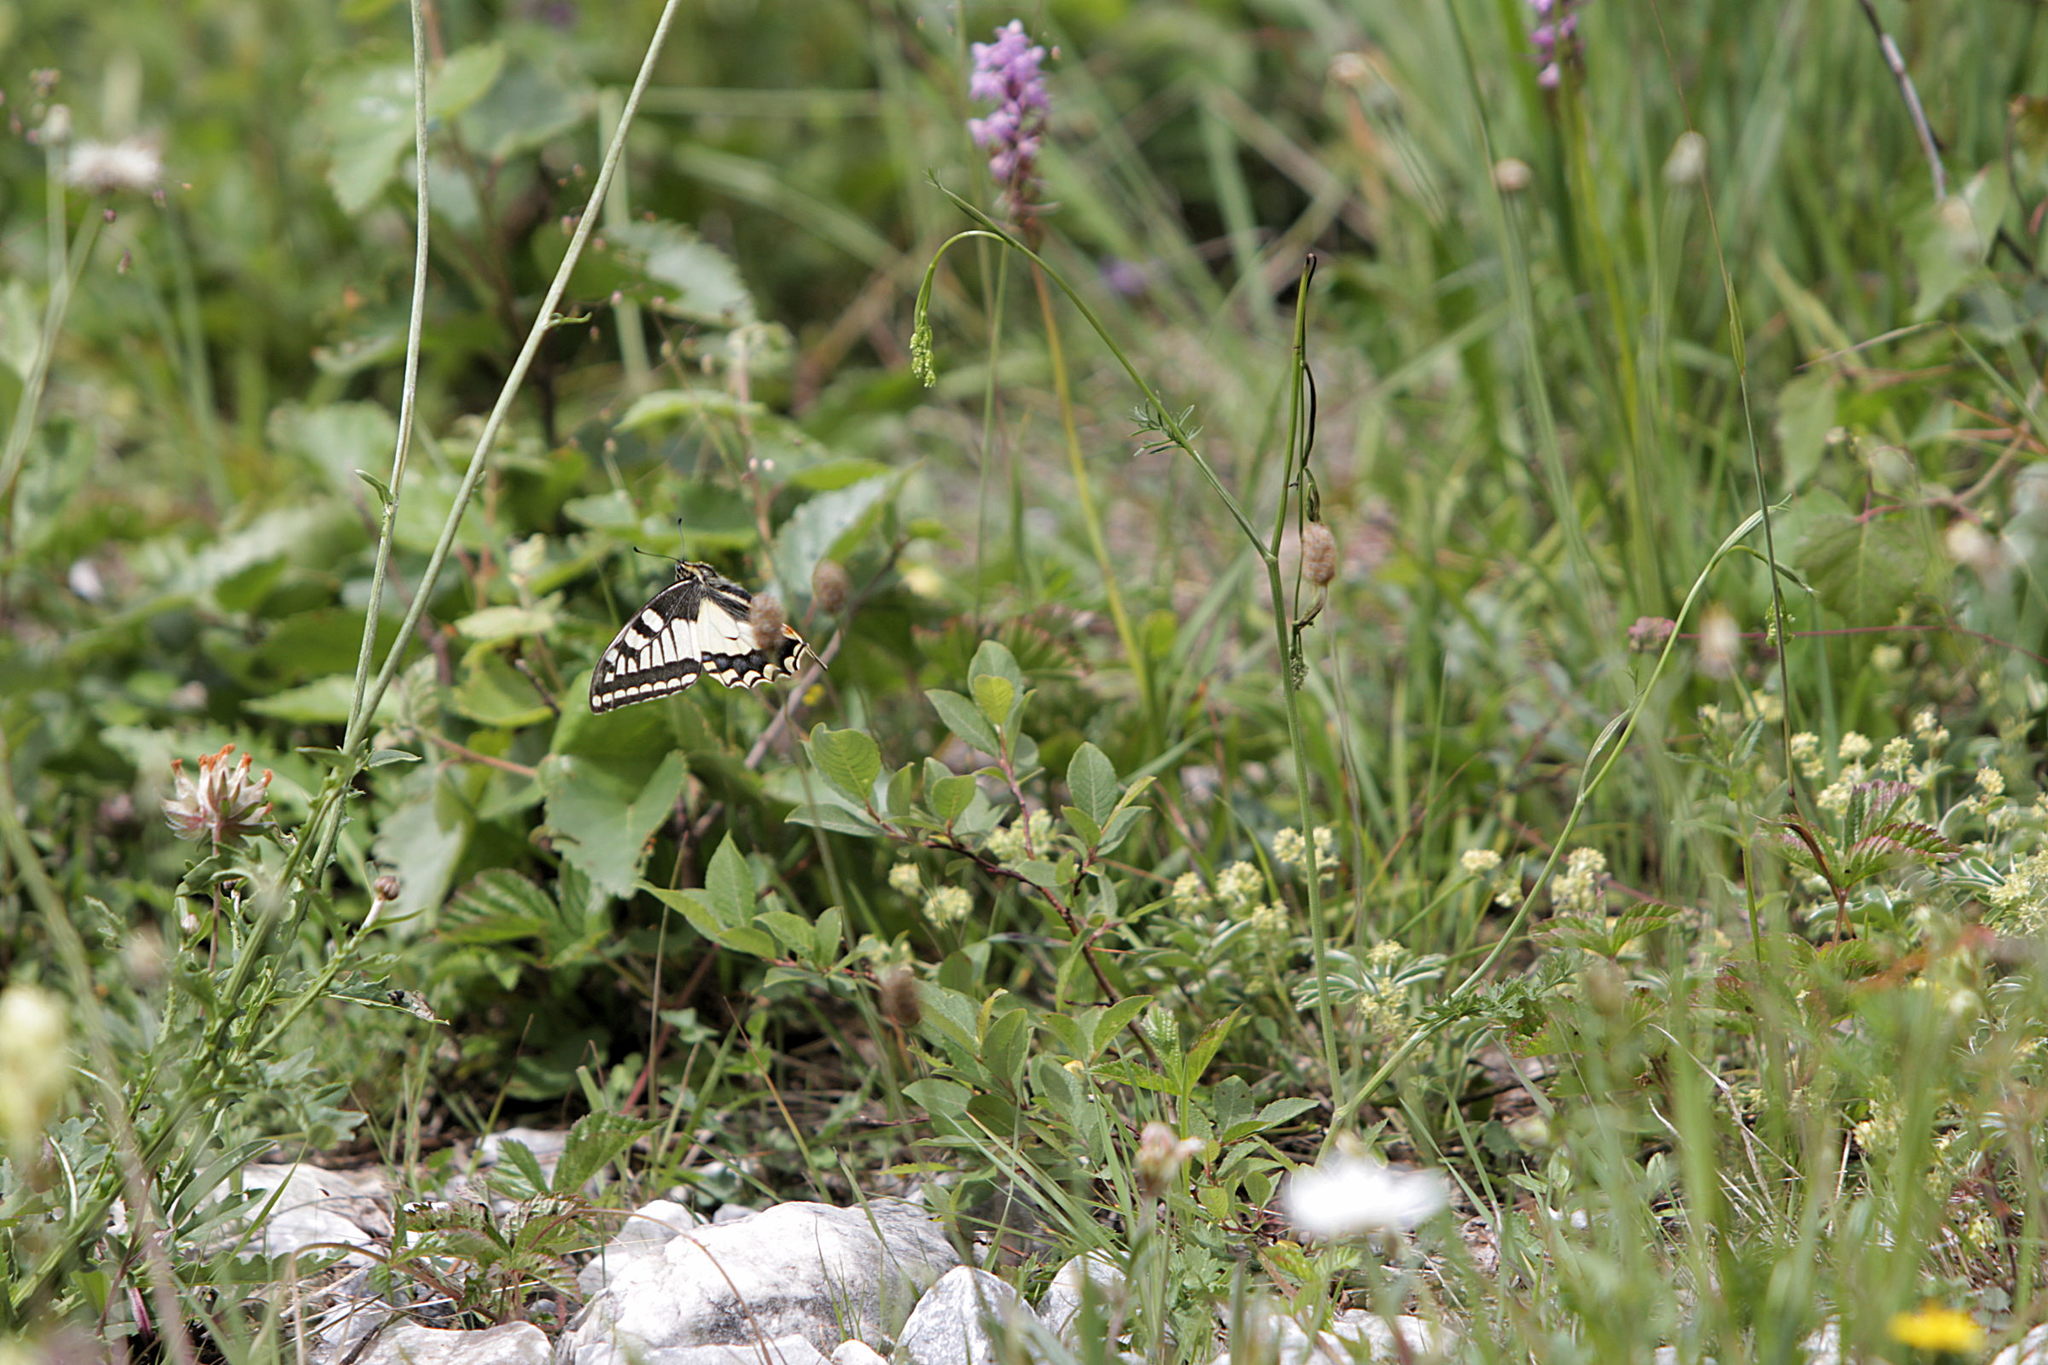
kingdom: Animalia
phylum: Arthropoda
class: Insecta
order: Lepidoptera
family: Papilionidae
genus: Papilio
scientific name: Papilio machaon
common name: Swallowtail
